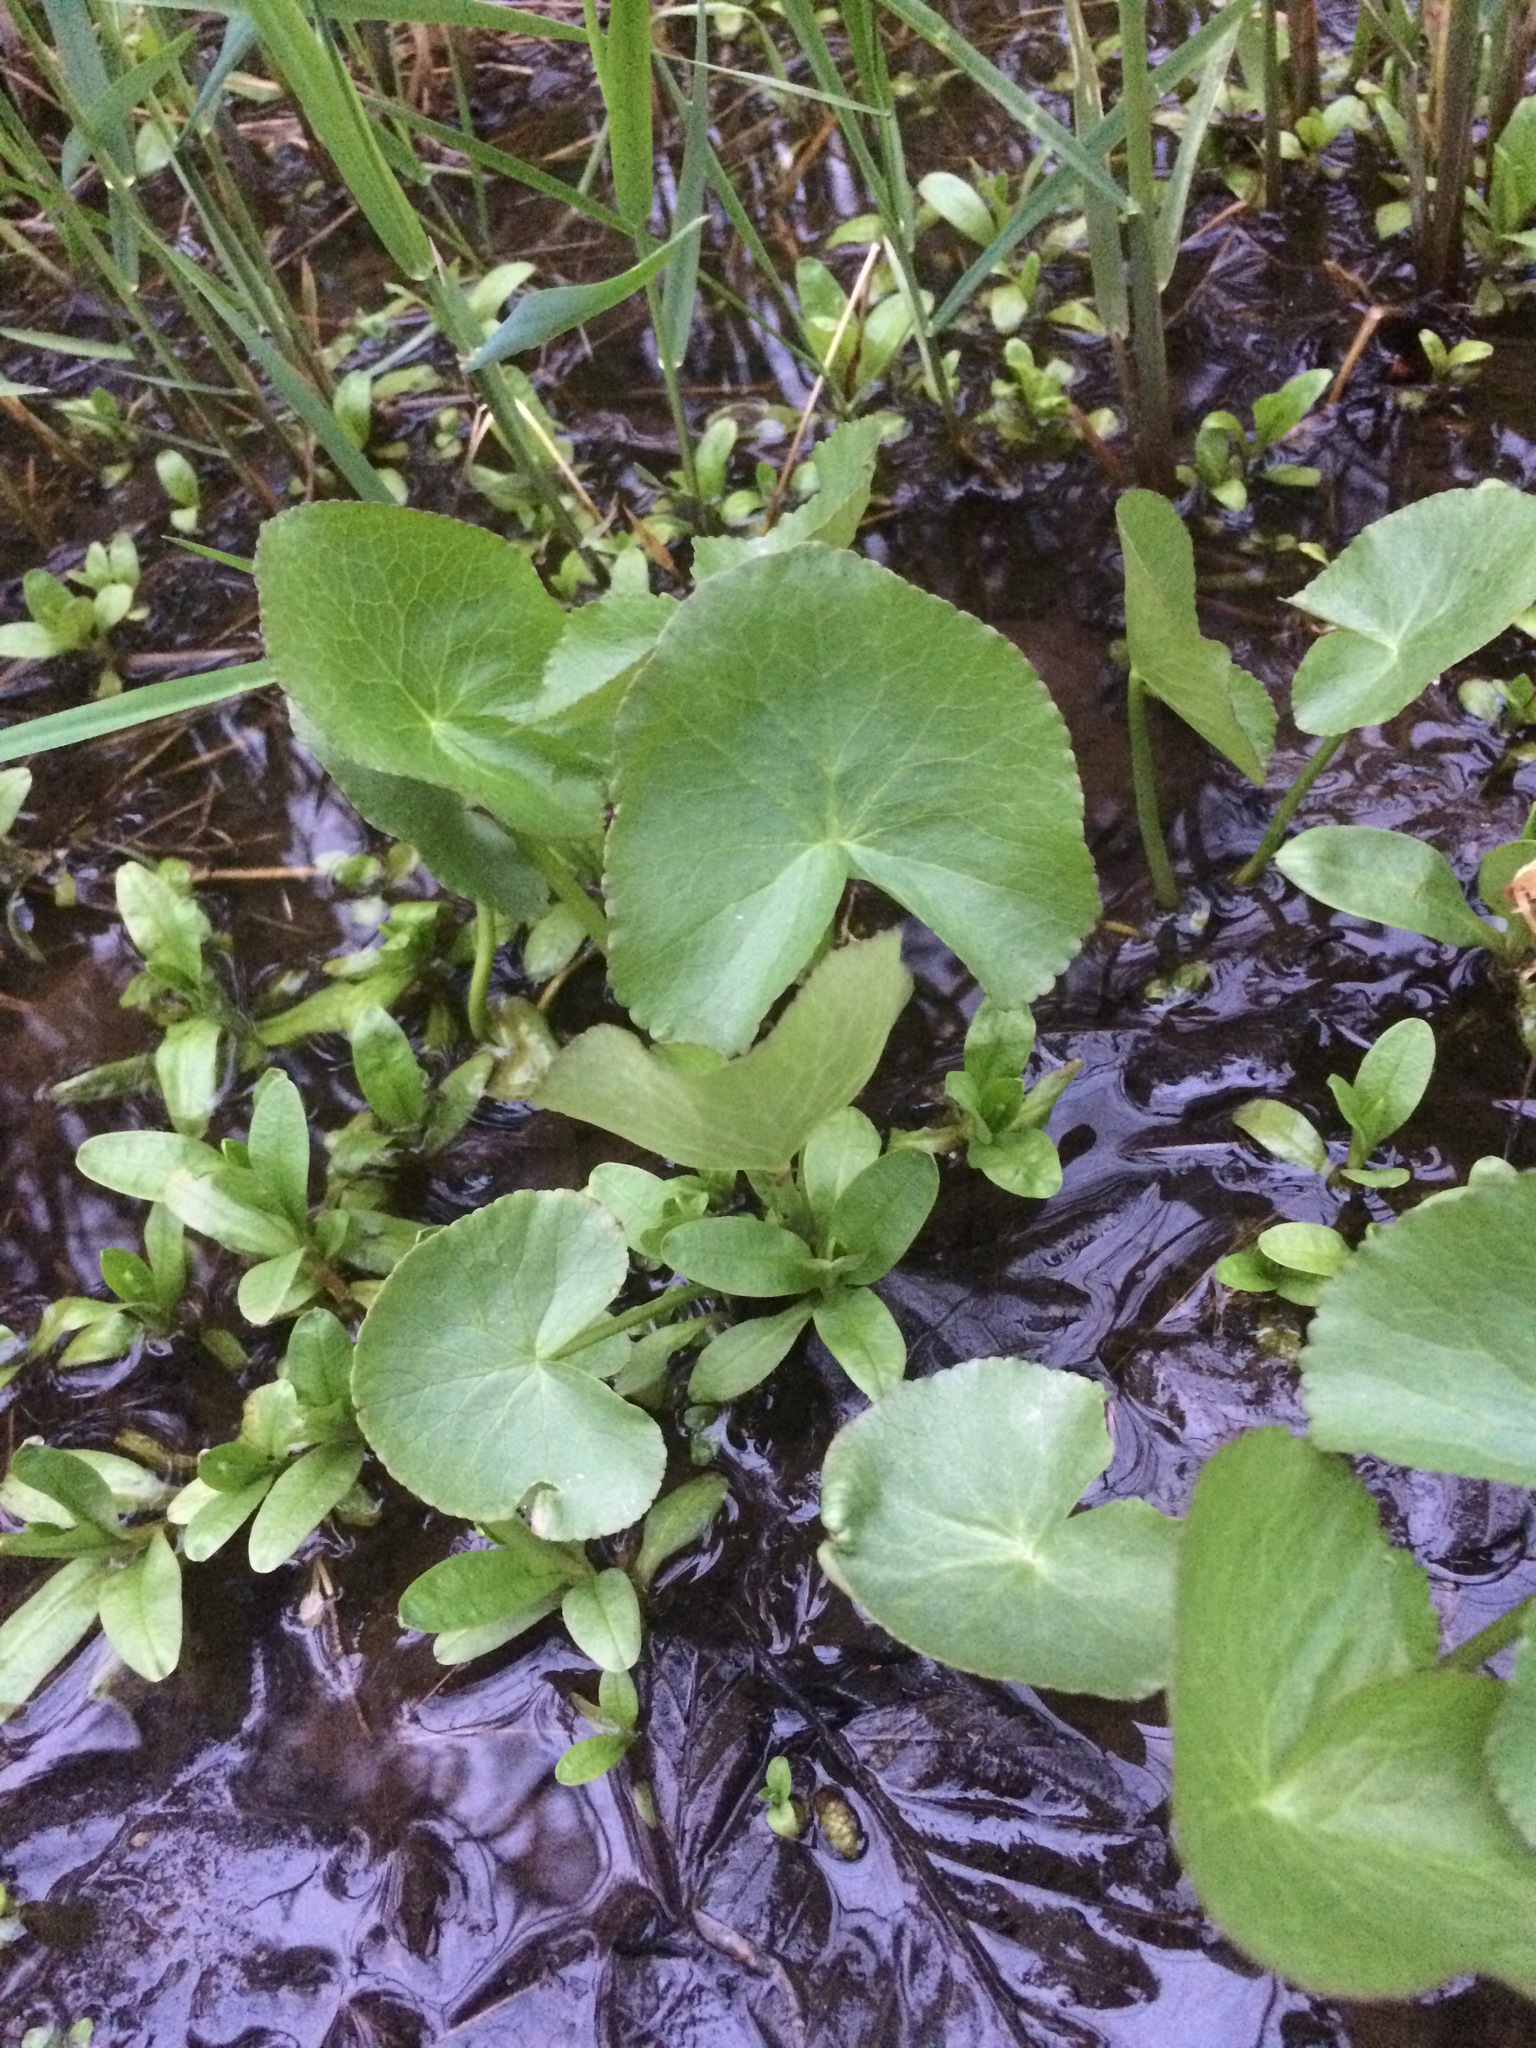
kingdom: Plantae
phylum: Tracheophyta
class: Magnoliopsida
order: Ranunculales
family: Ranunculaceae
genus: Caltha
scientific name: Caltha palustris
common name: Marsh marigold
